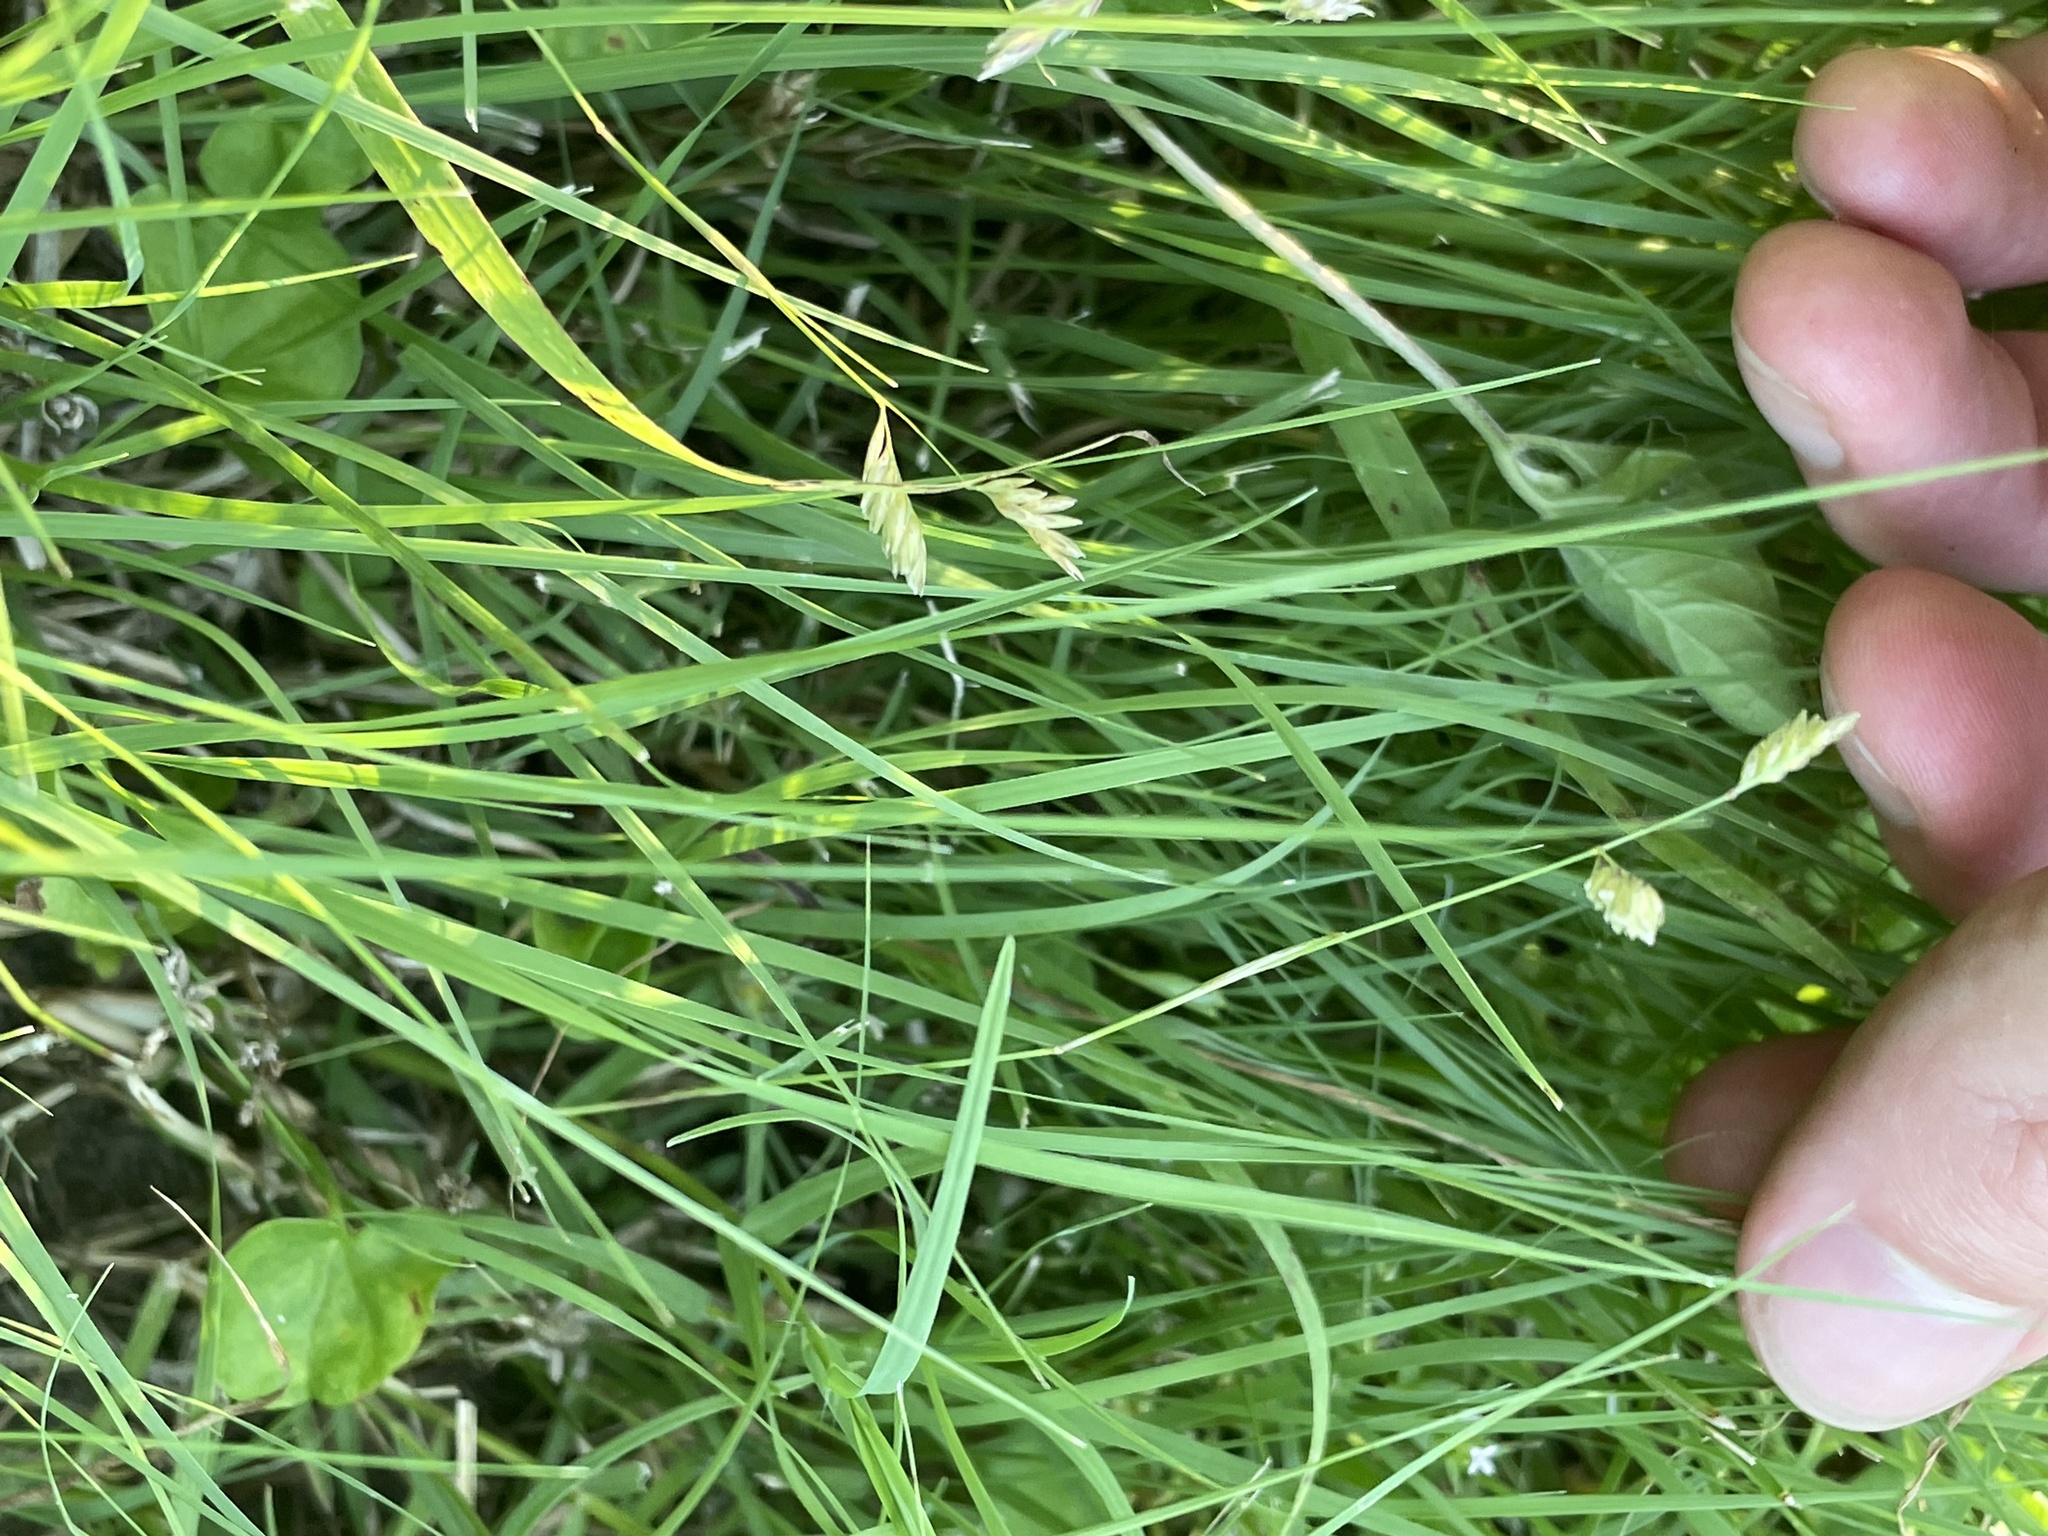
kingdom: Plantae
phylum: Tracheophyta
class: Liliopsida
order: Poales
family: Poaceae
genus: Bouteloua
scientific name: Bouteloua dactyloides
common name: Buffalo grass
